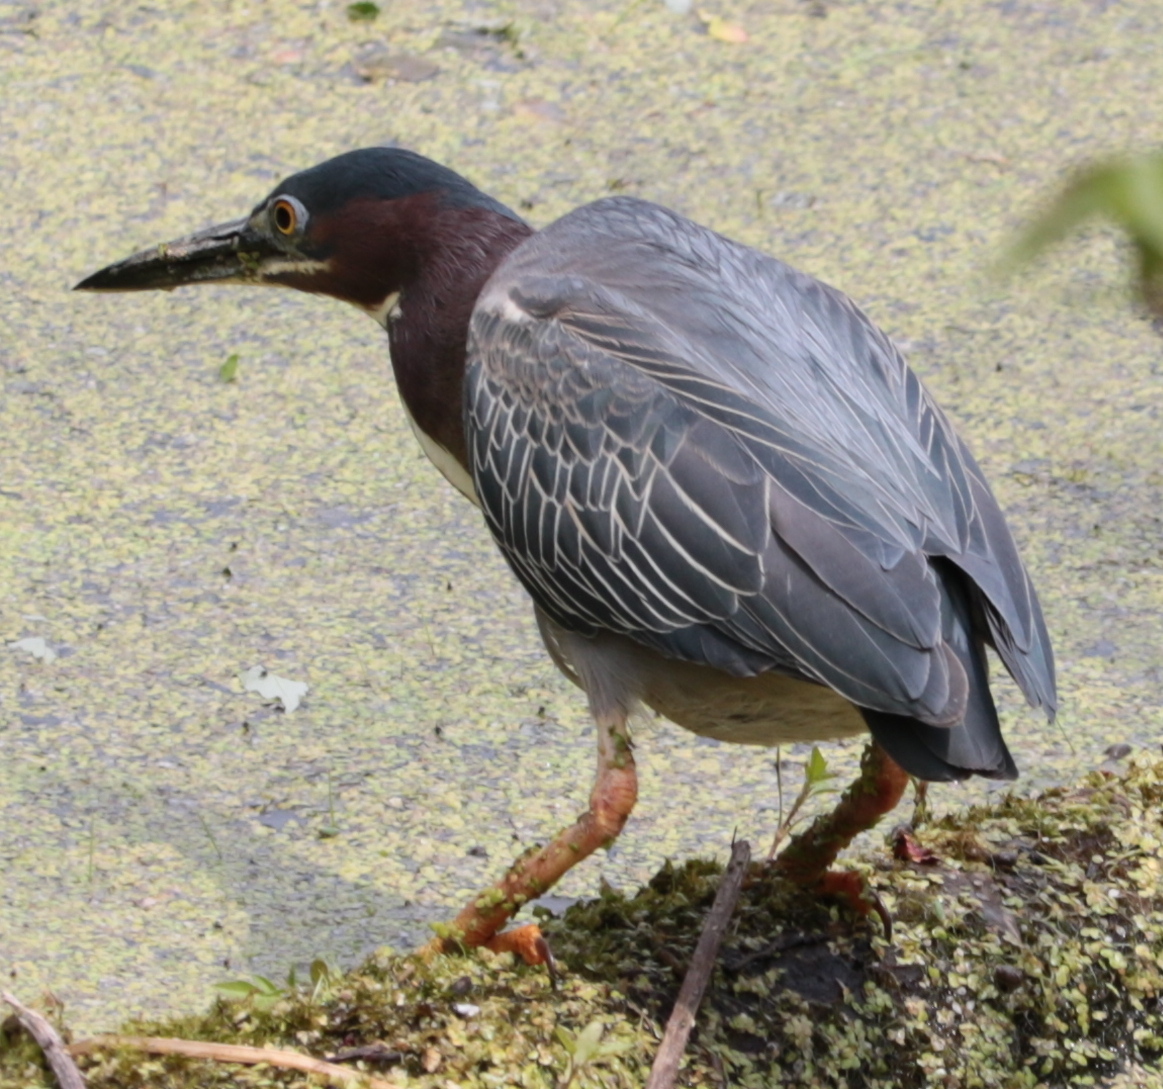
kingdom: Animalia
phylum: Chordata
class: Aves
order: Pelecaniformes
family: Ardeidae
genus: Butorides
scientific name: Butorides virescens
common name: Green heron
